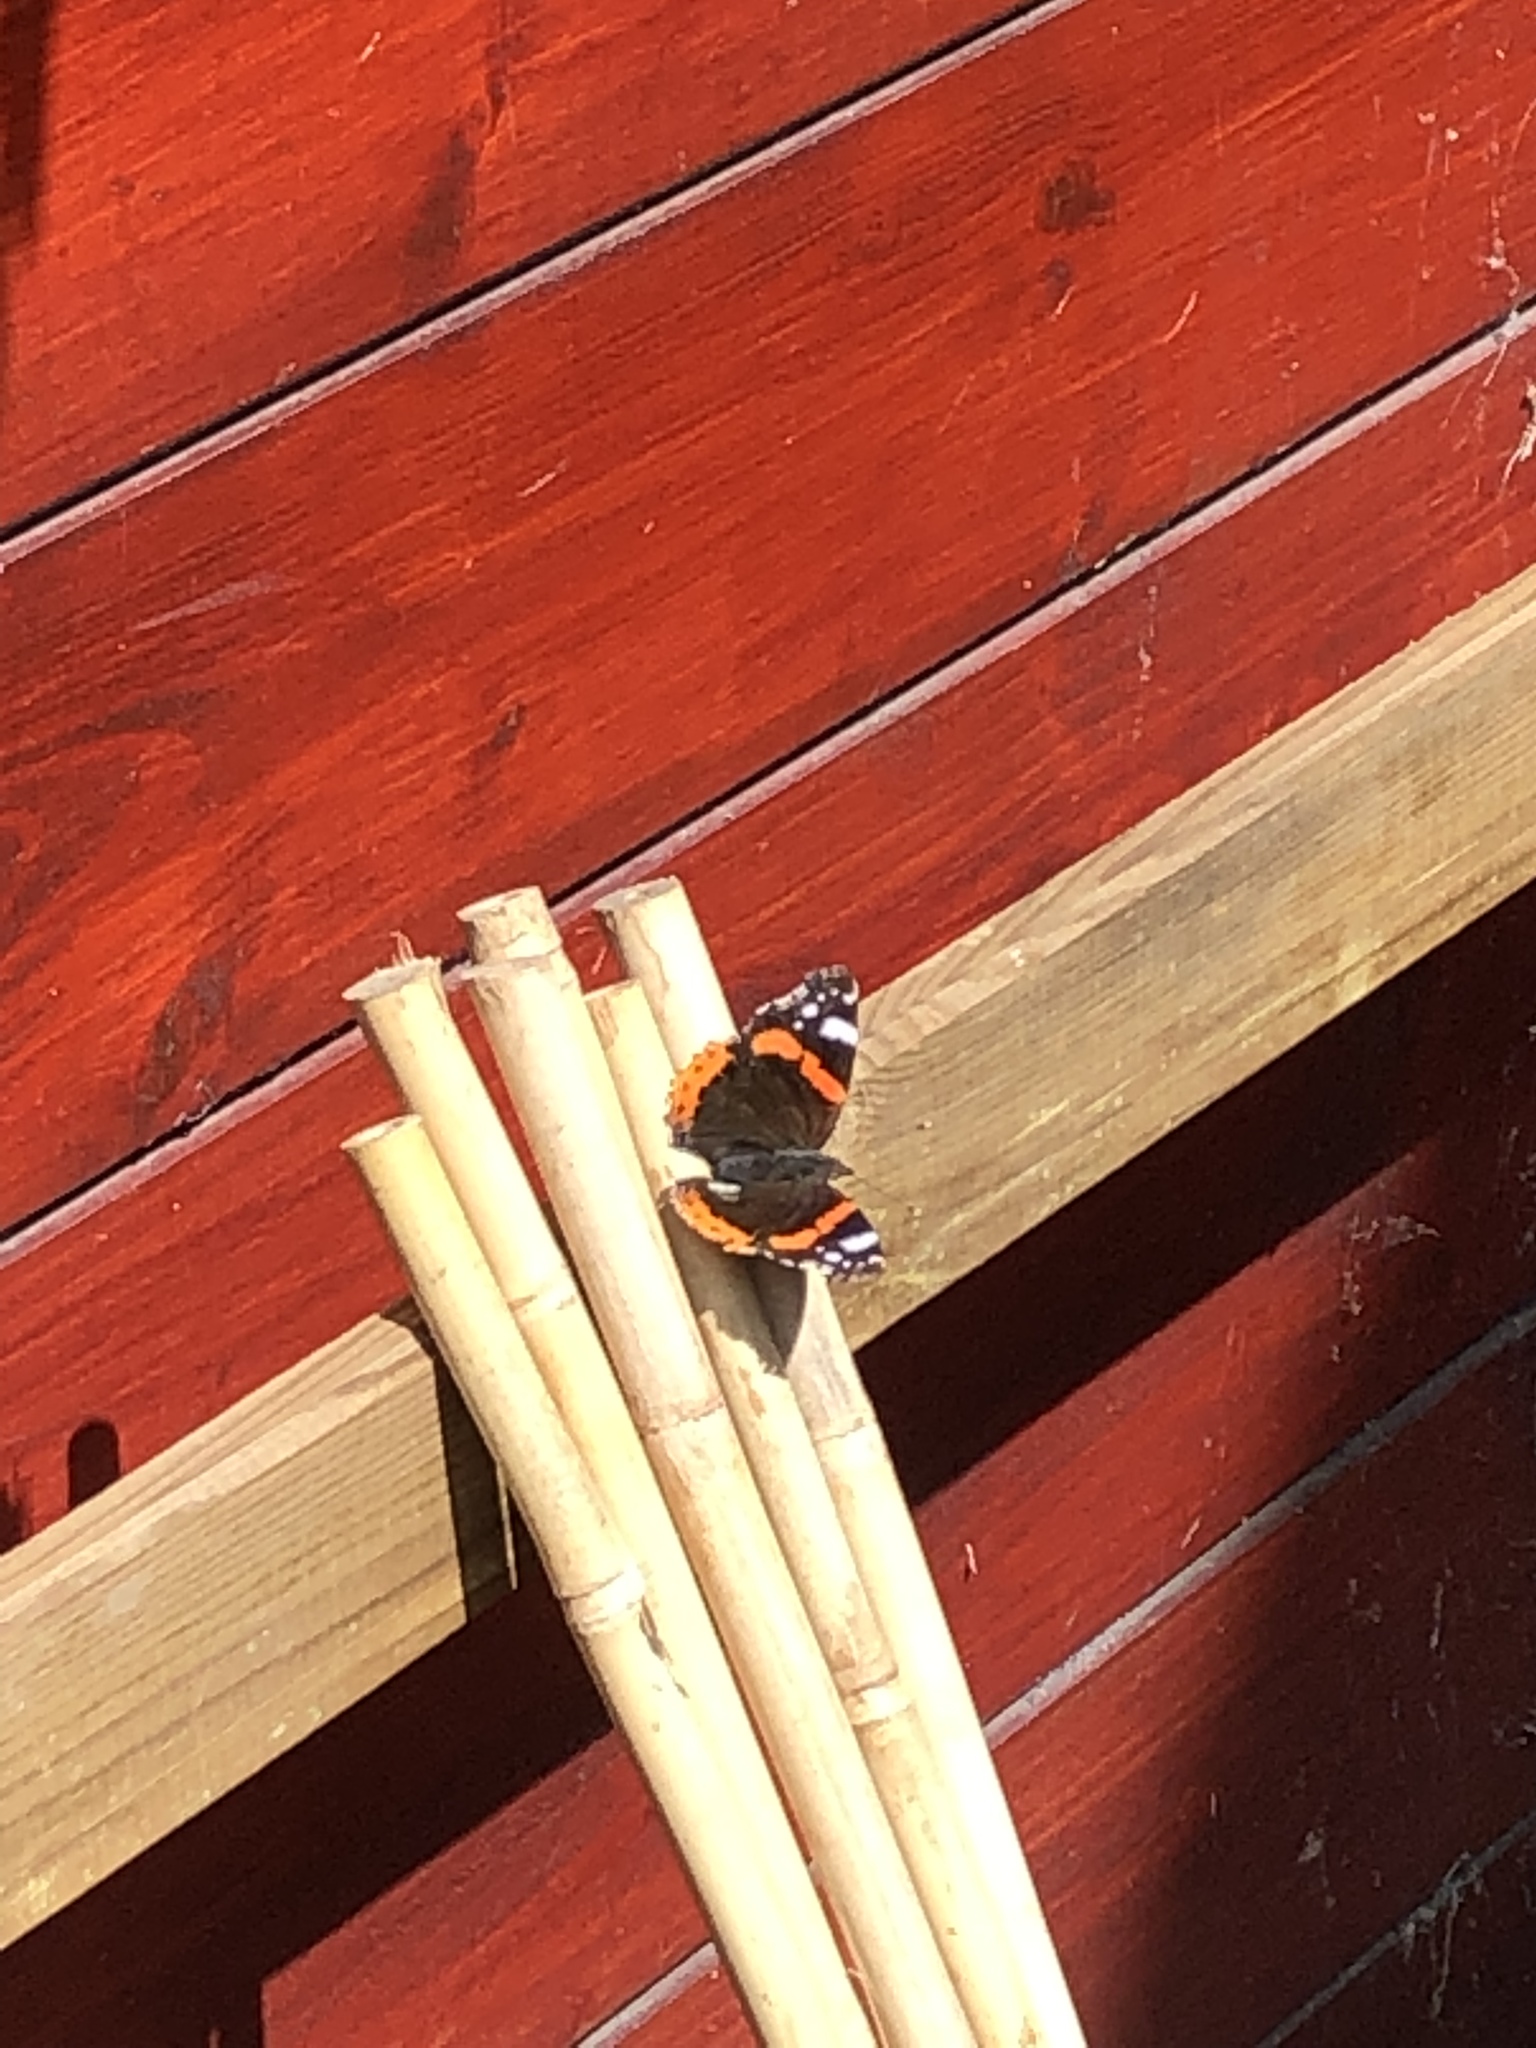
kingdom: Animalia
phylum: Arthropoda
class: Insecta
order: Lepidoptera
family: Nymphalidae
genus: Vanessa
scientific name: Vanessa atalanta
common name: Red admiral
